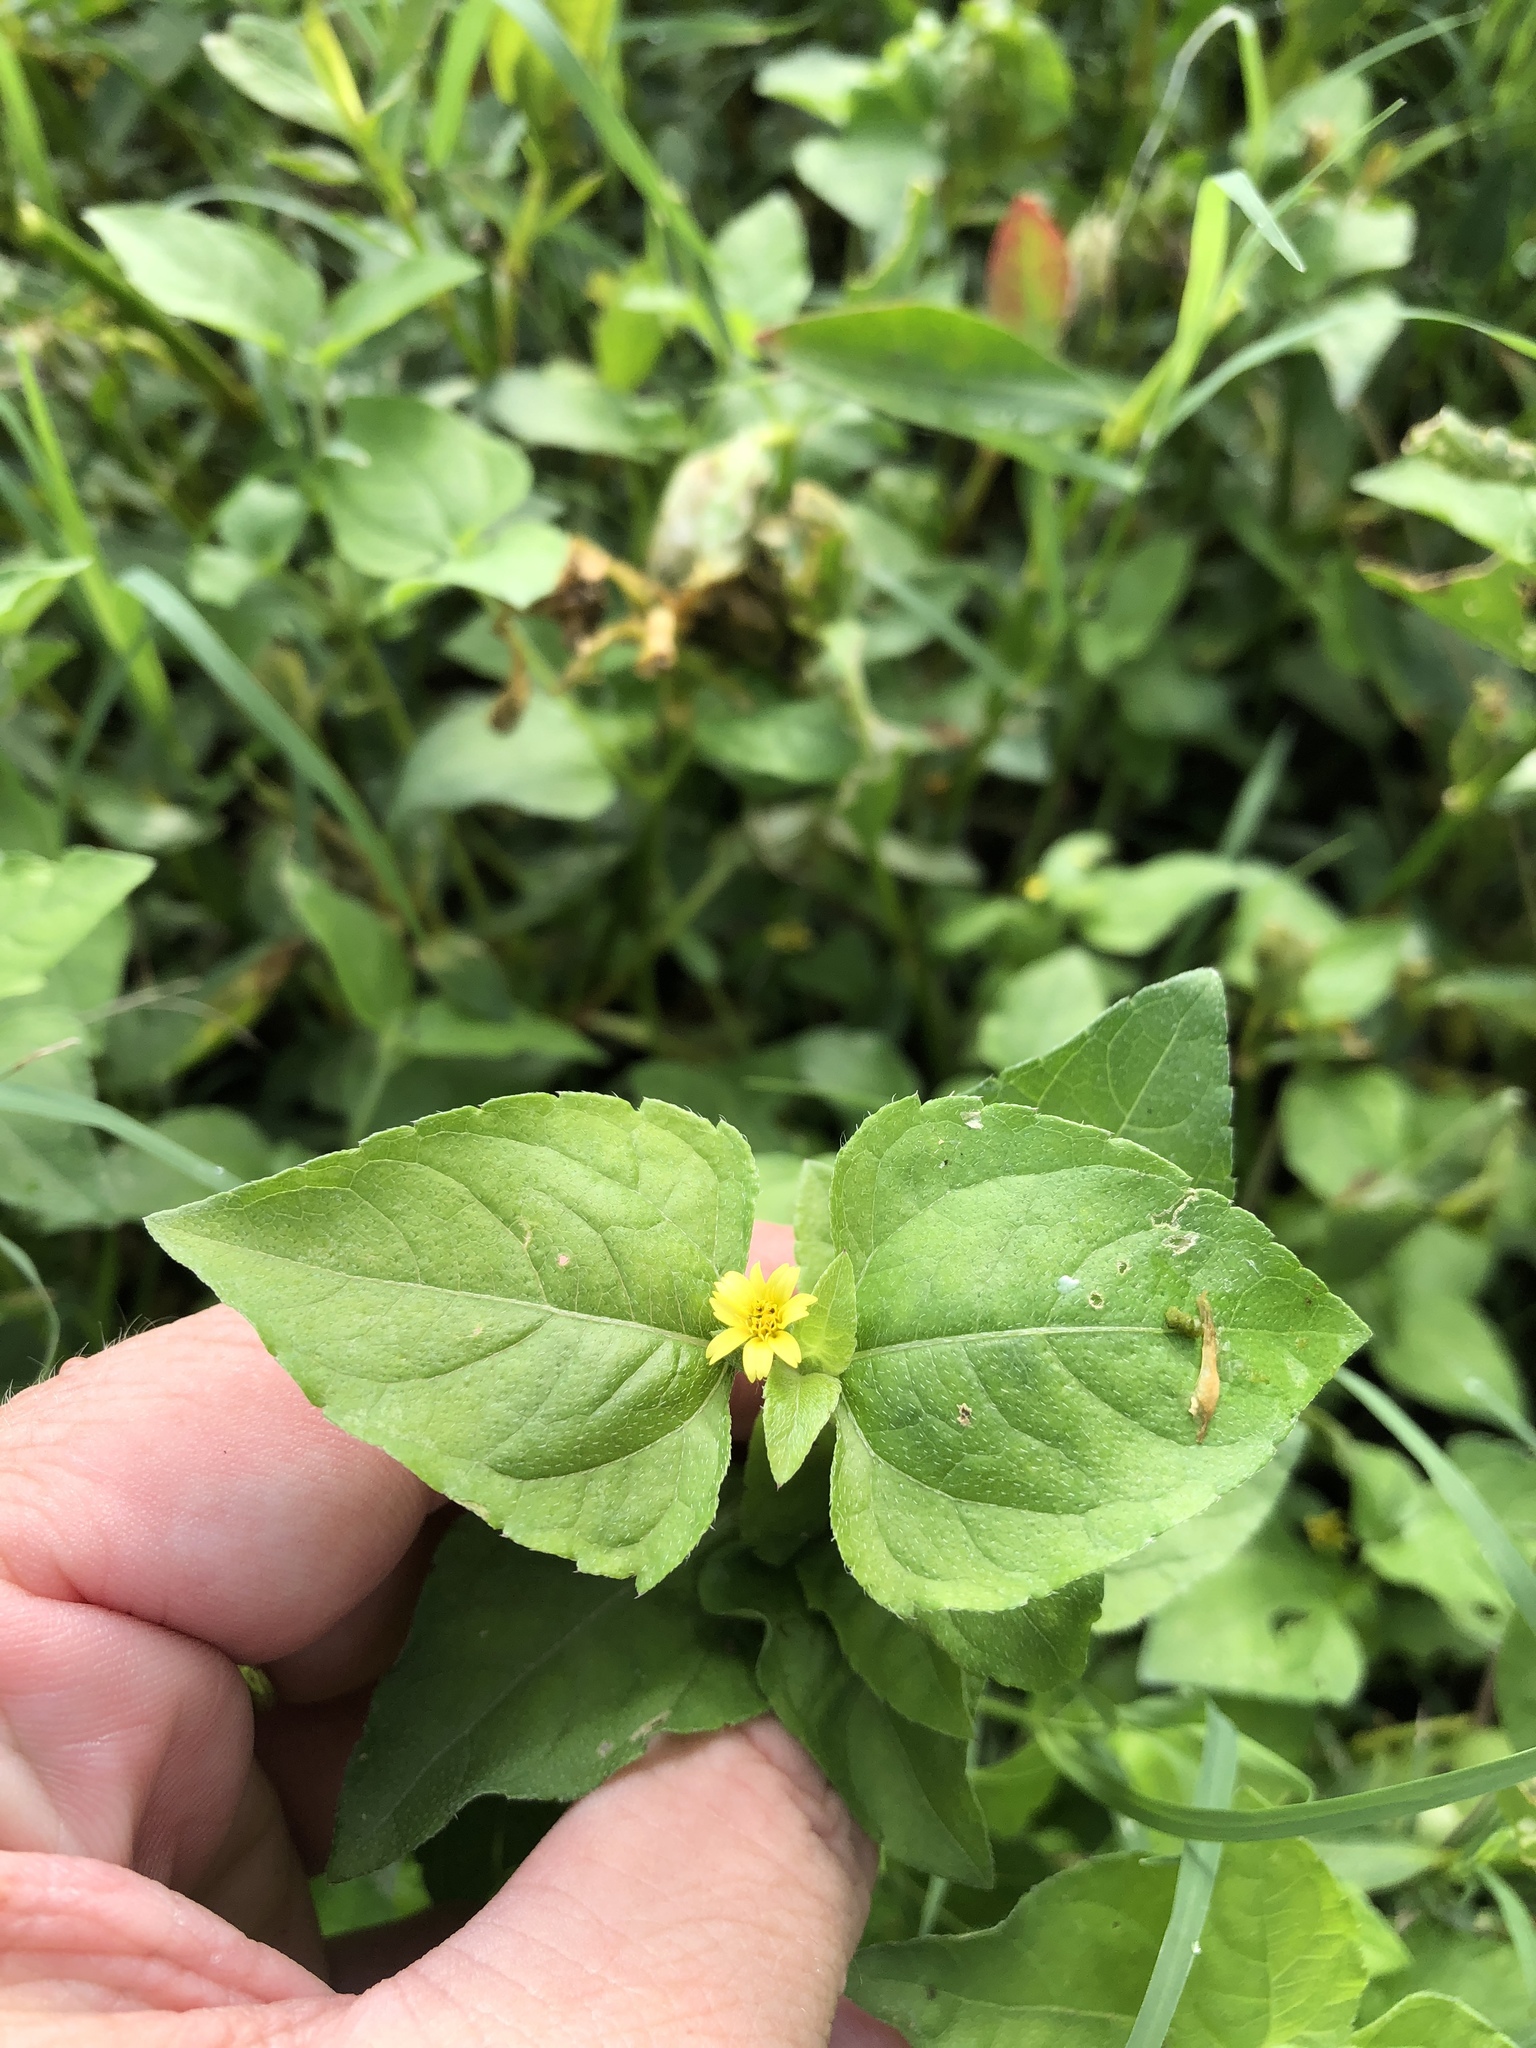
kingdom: Plantae
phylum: Tracheophyta
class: Magnoliopsida
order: Asterales
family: Asteraceae
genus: Calyptocarpus
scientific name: Calyptocarpus vialis
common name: Straggler daisy
